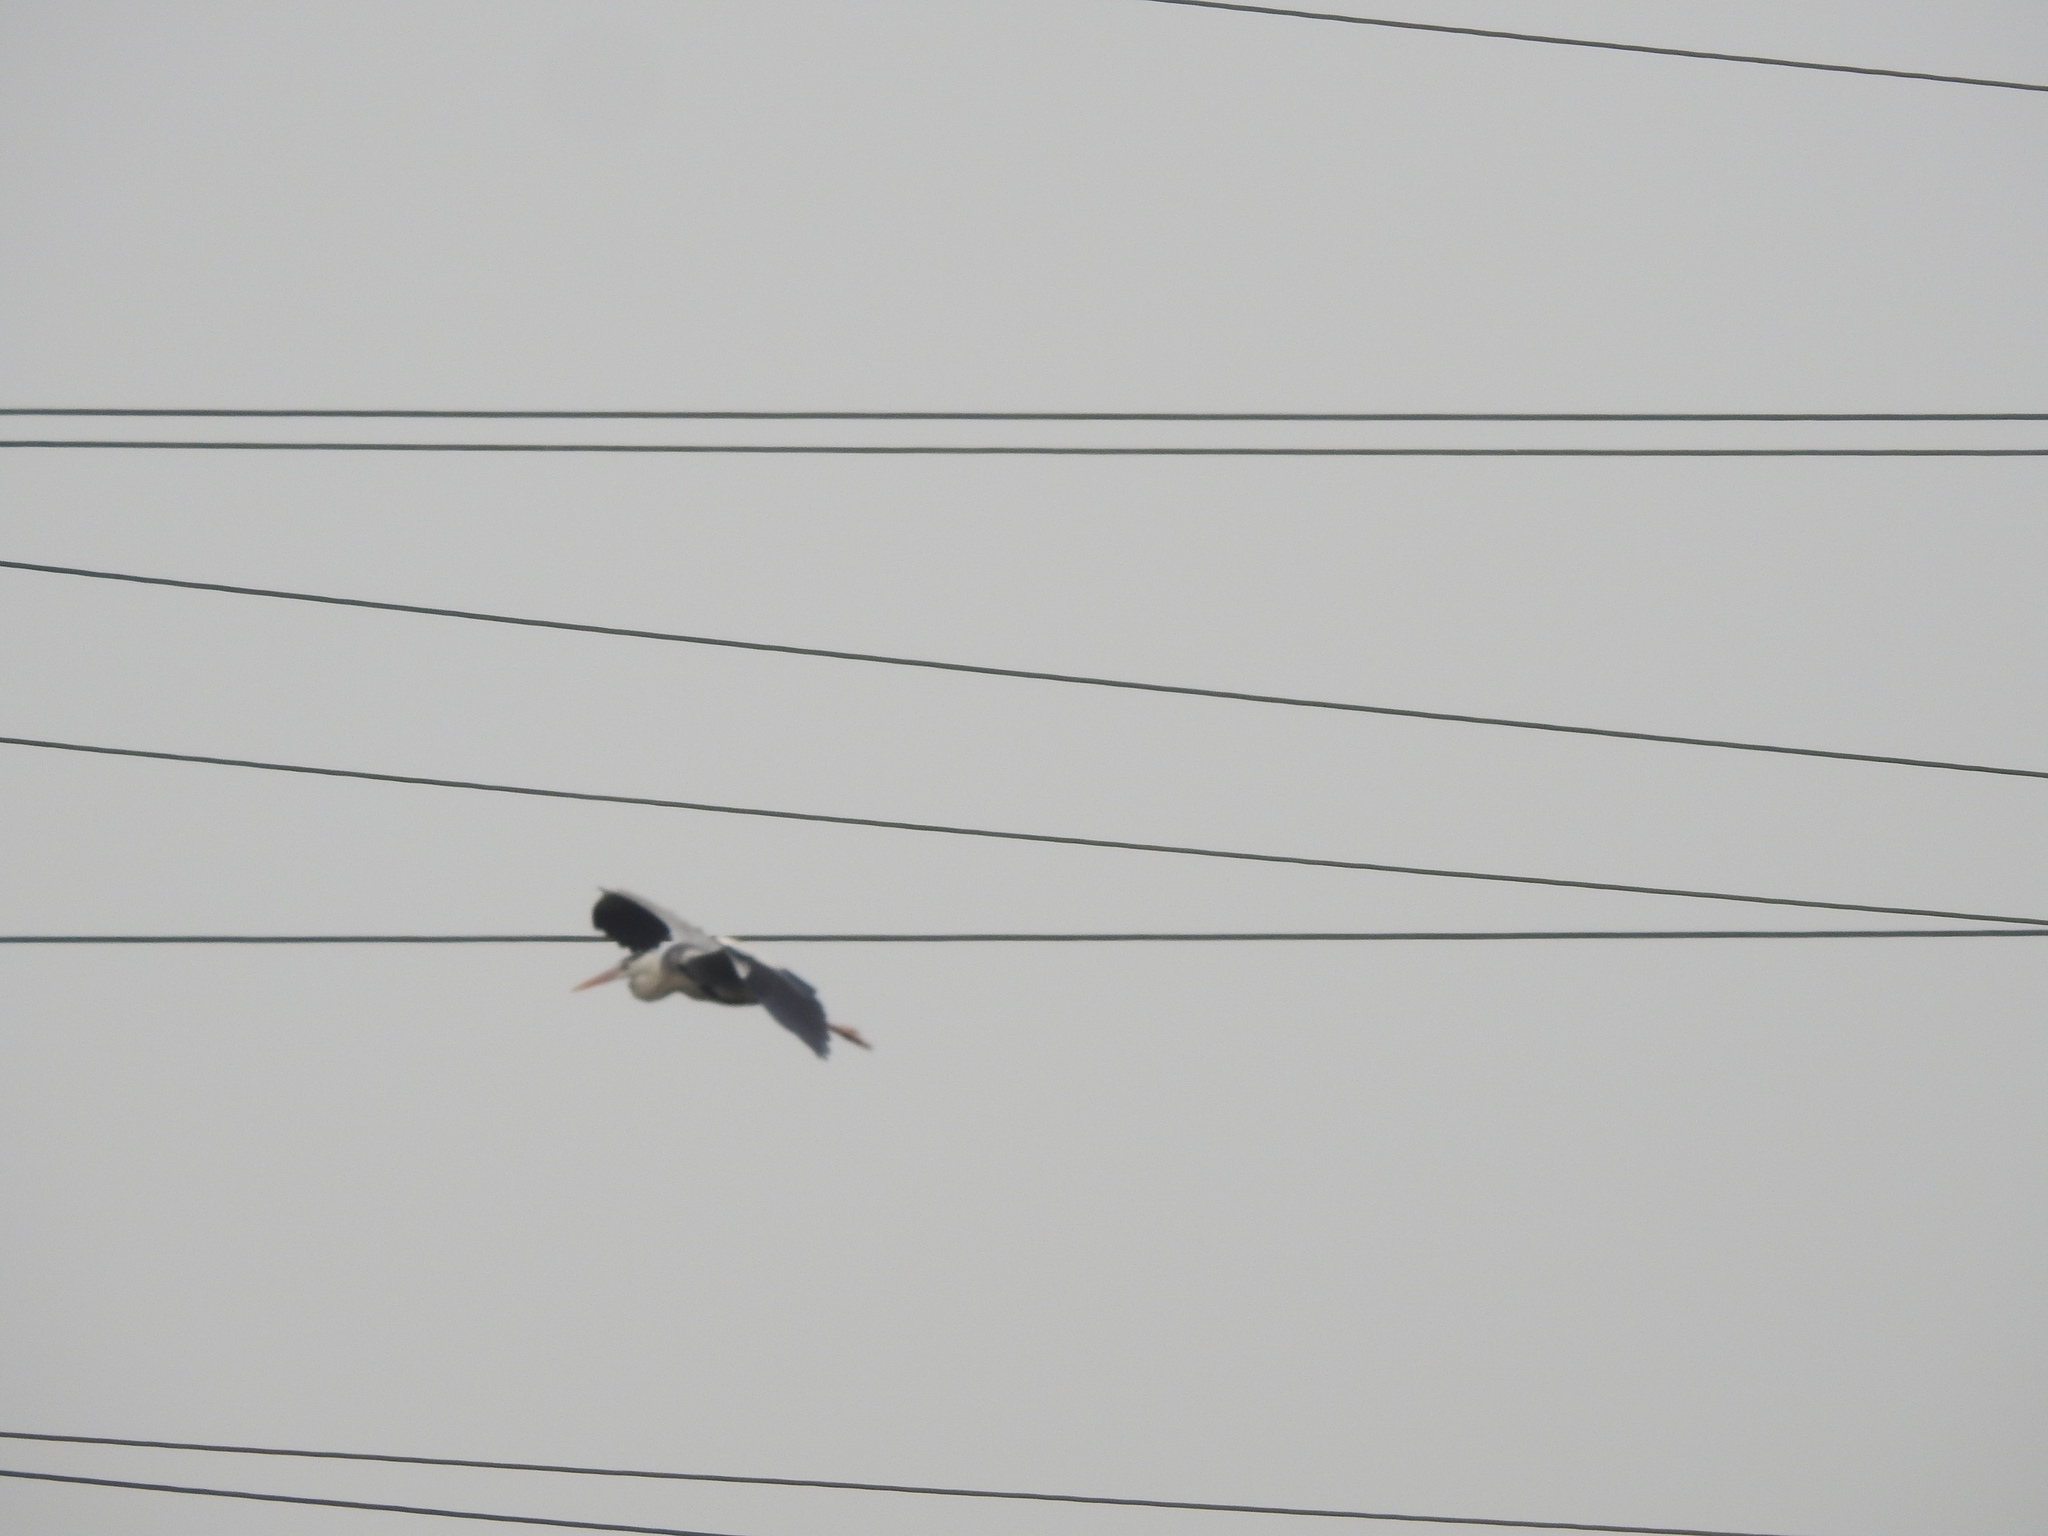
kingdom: Animalia
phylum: Chordata
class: Aves
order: Pelecaniformes
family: Ardeidae
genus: Ardea
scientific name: Ardea cinerea
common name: Grey heron
